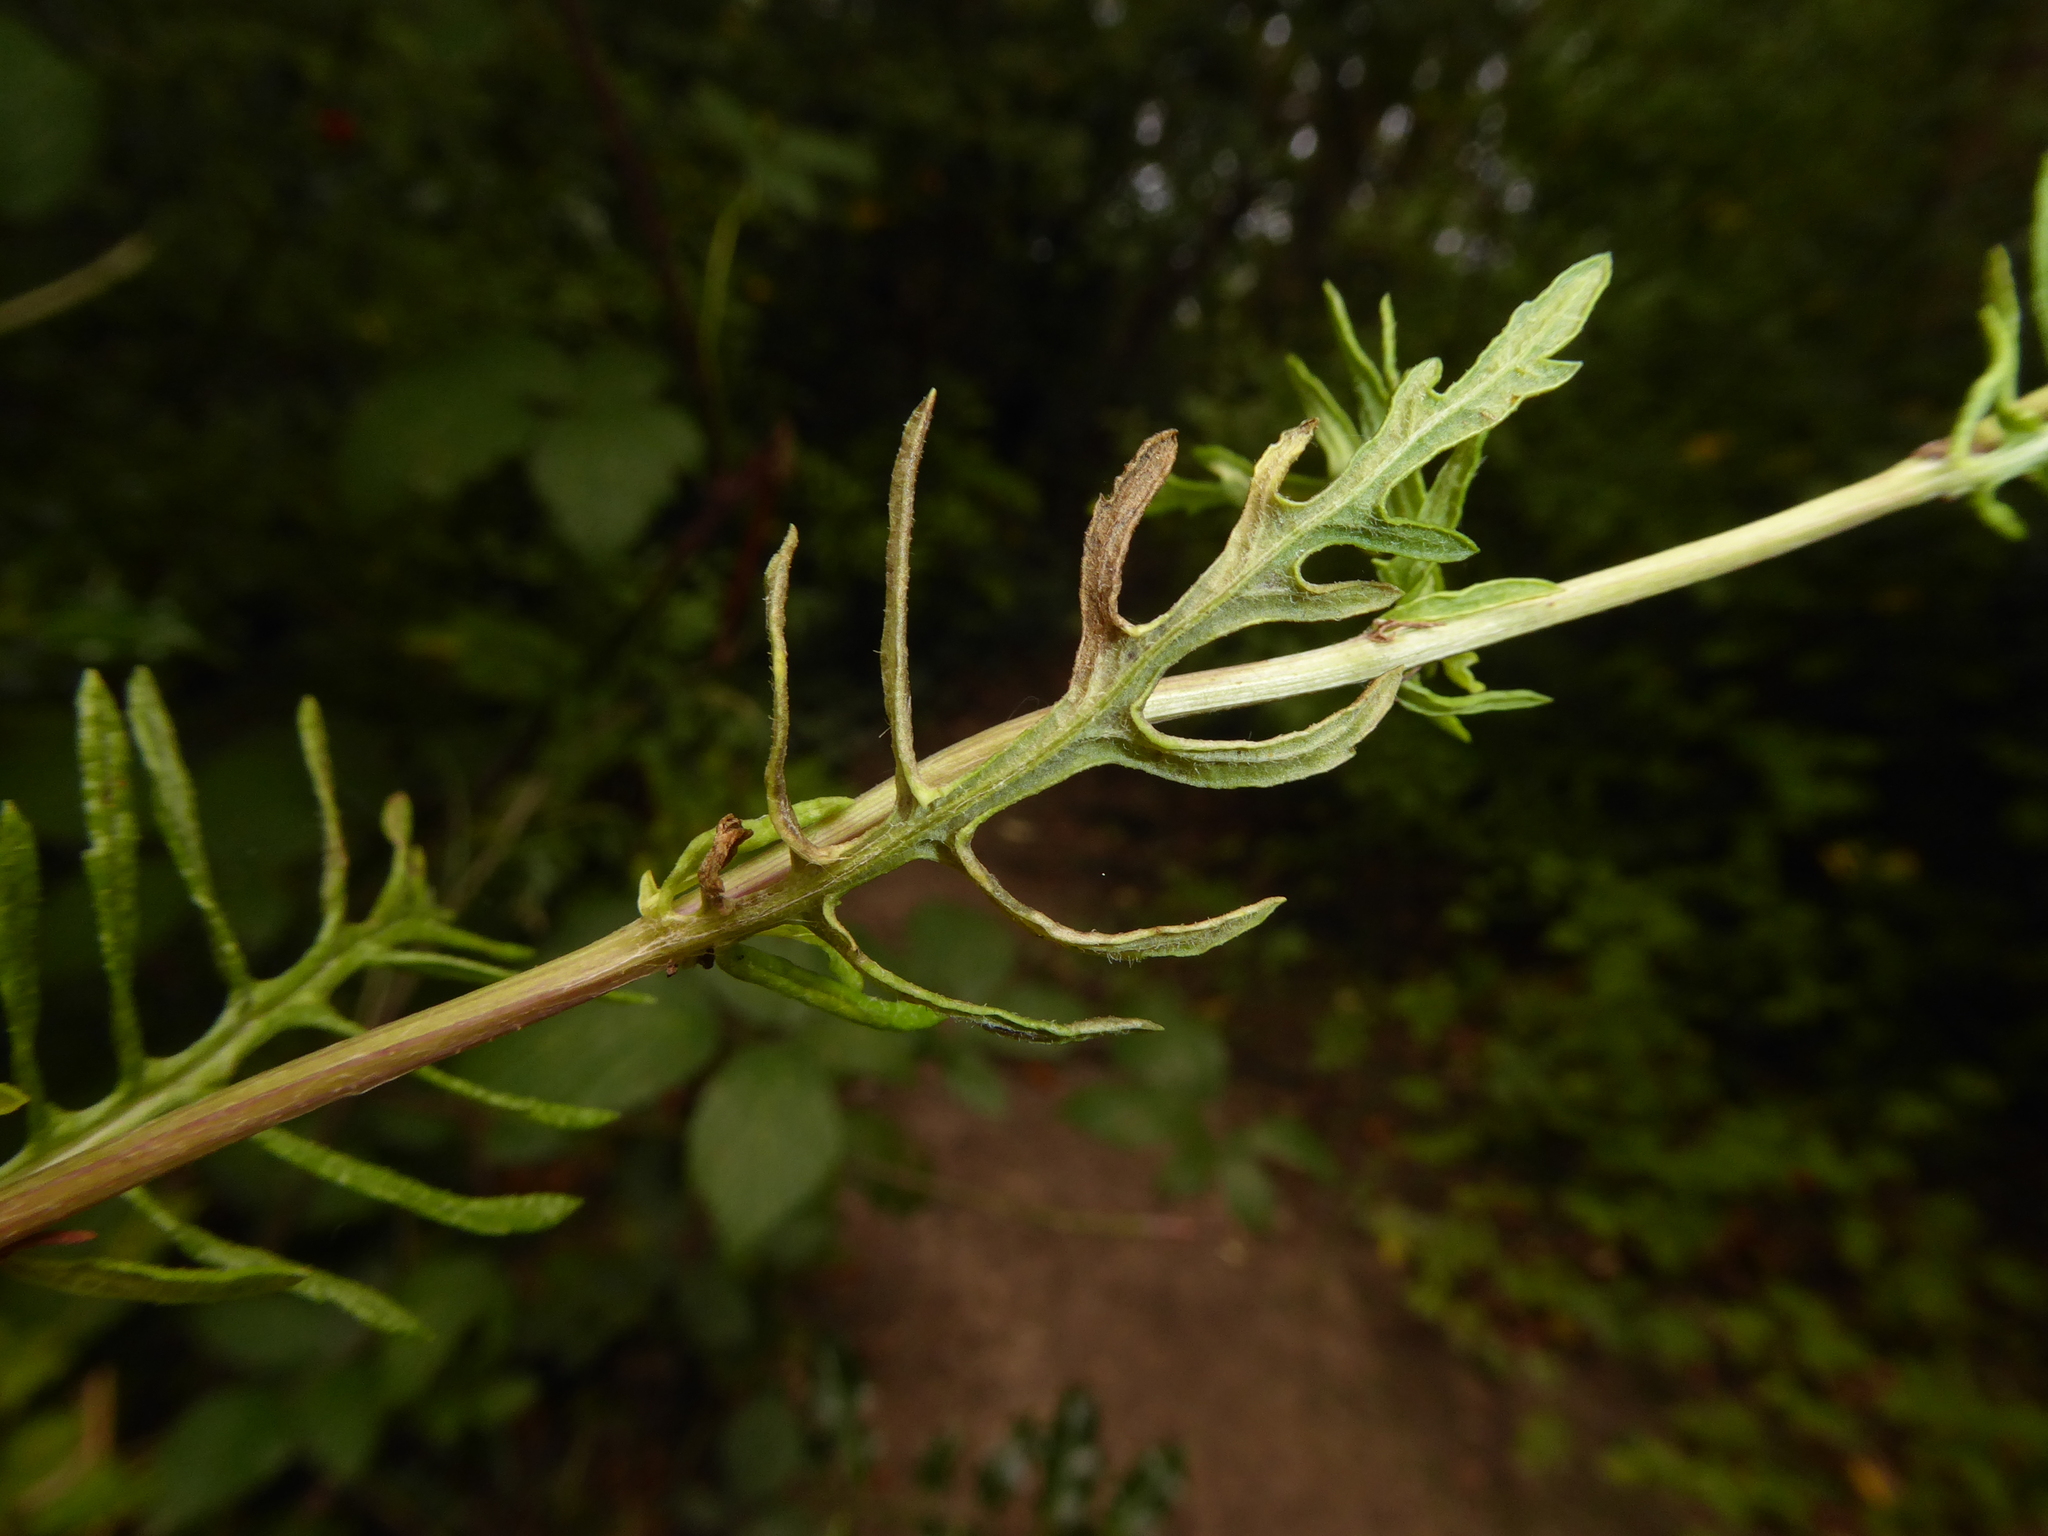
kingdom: Plantae
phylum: Tracheophyta
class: Magnoliopsida
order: Asterales
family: Asteraceae
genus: Jacobaea
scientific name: Jacobaea erucifolia
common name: Hoary ragwort
